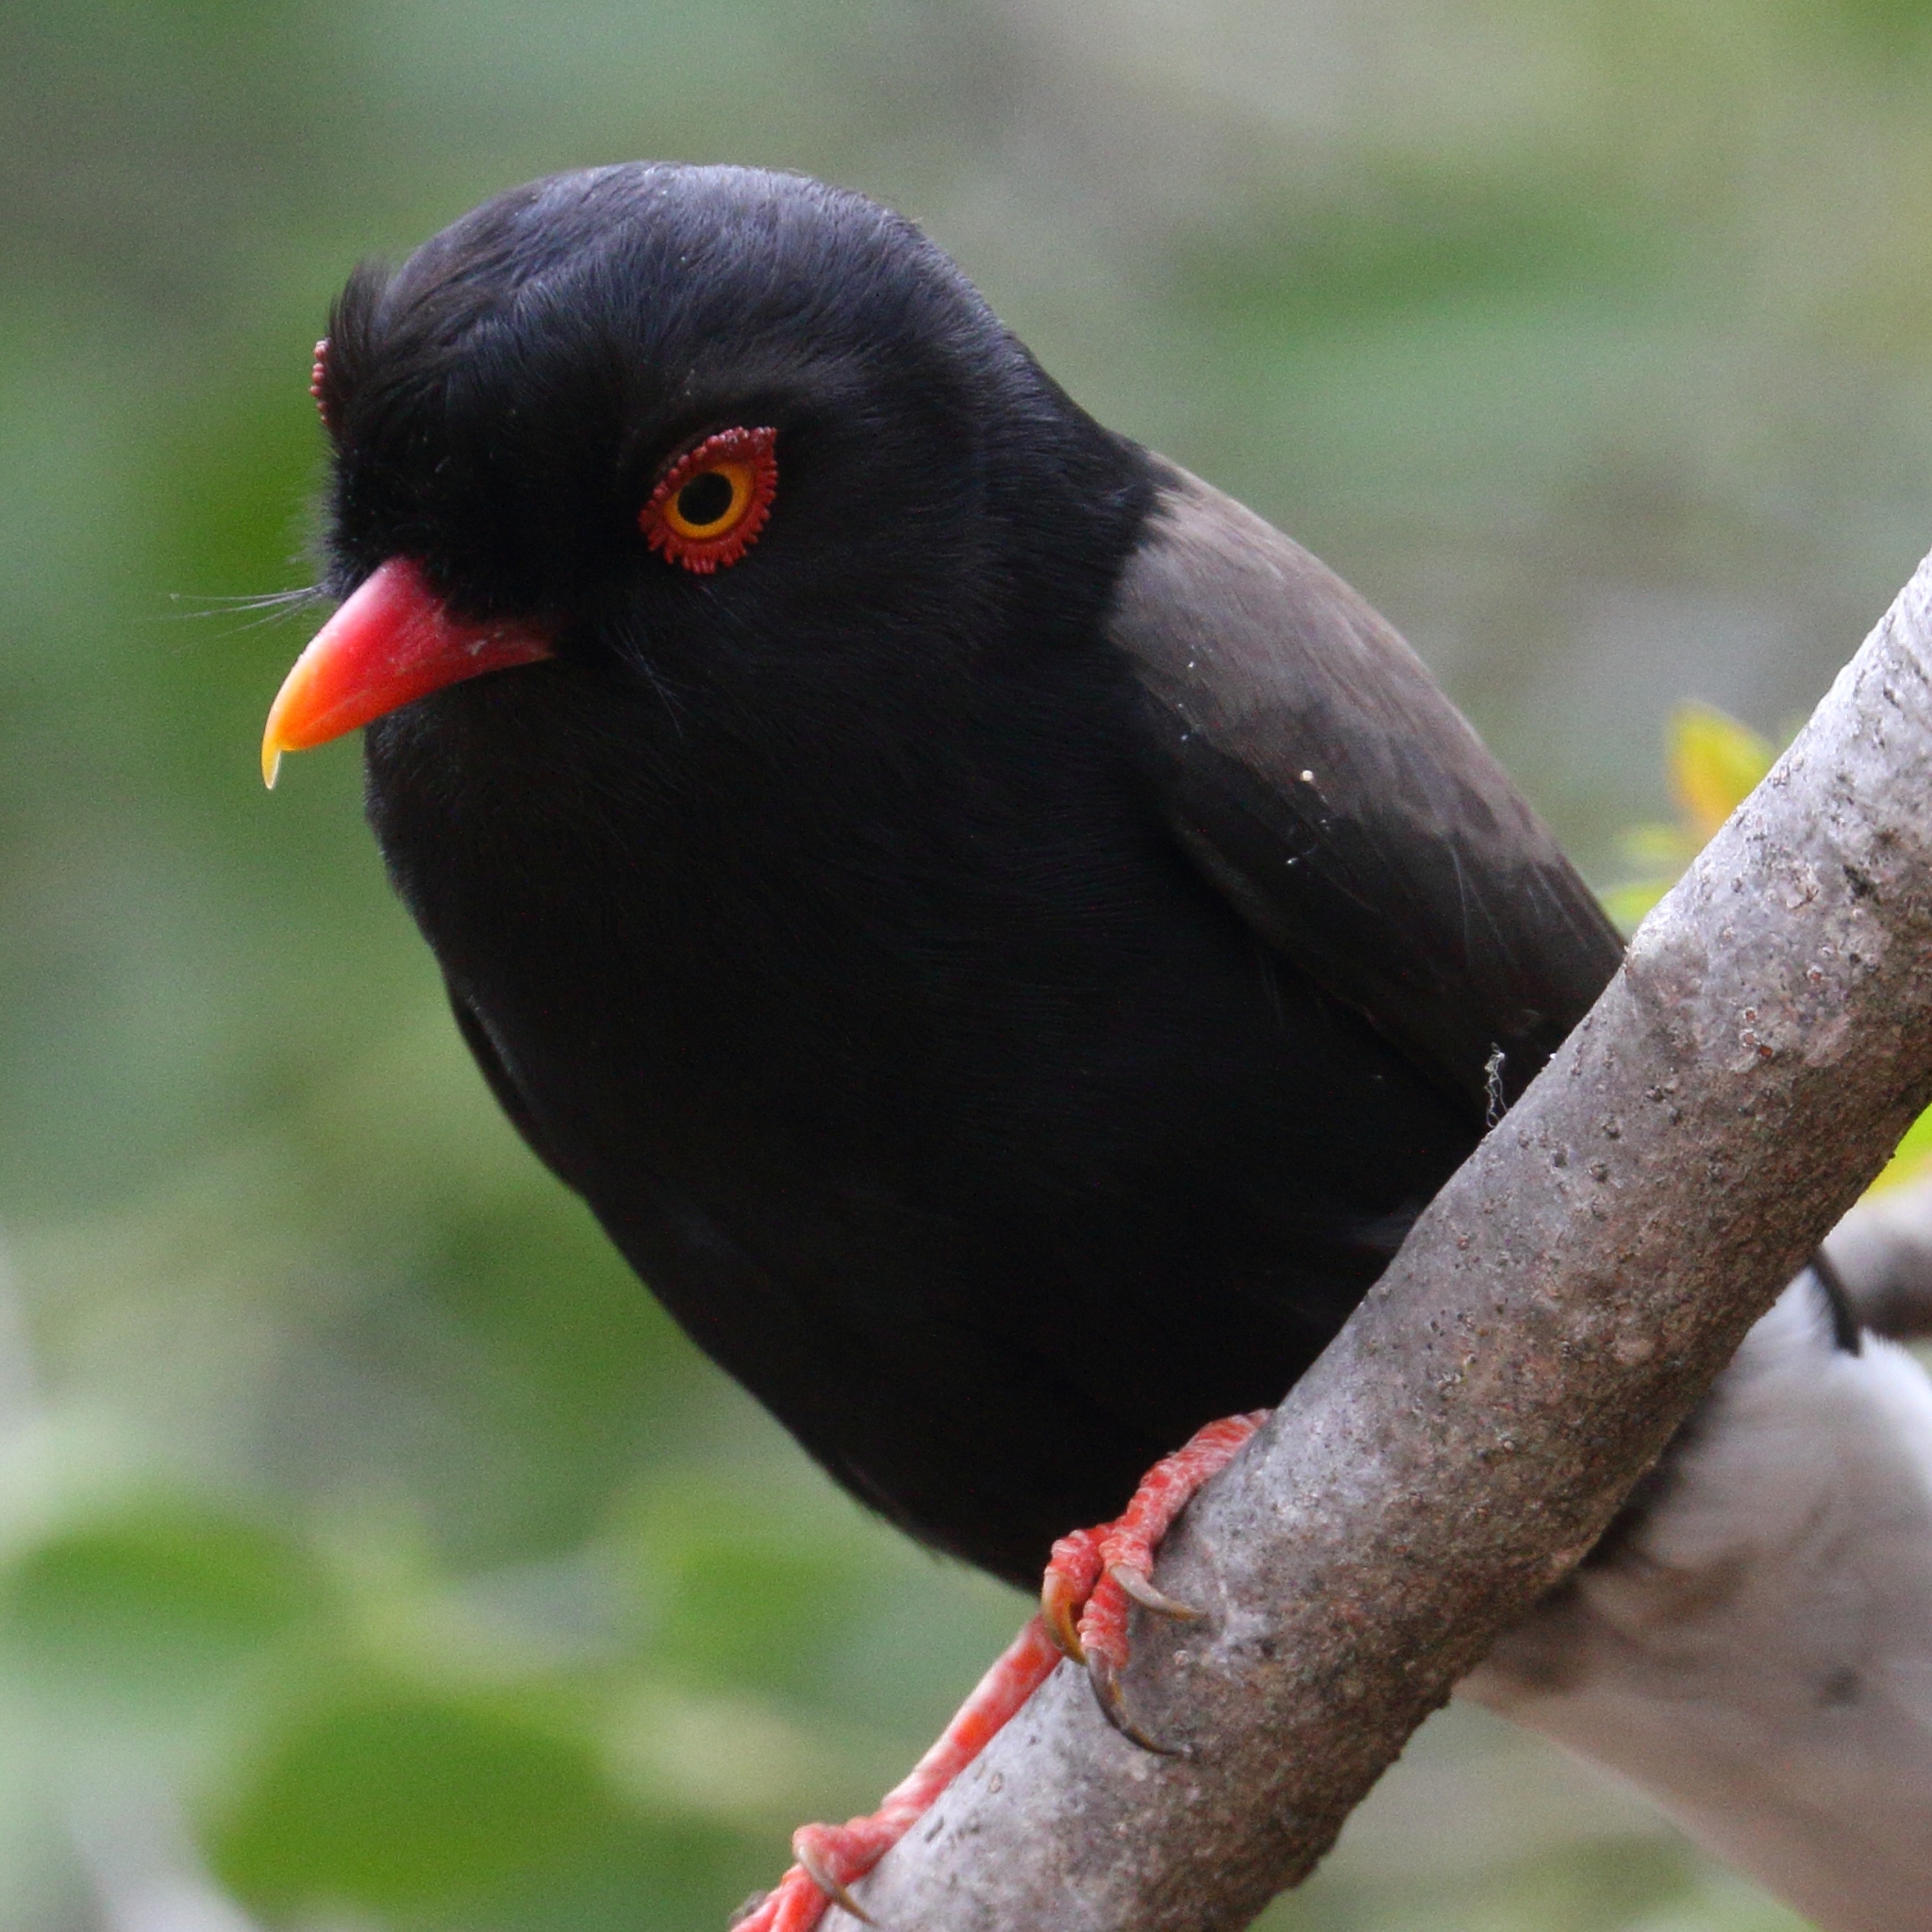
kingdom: Animalia
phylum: Chordata
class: Aves
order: Passeriformes
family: Prionopidae
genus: Prionops
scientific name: Prionops retzii
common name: Retz's helmetshrike
